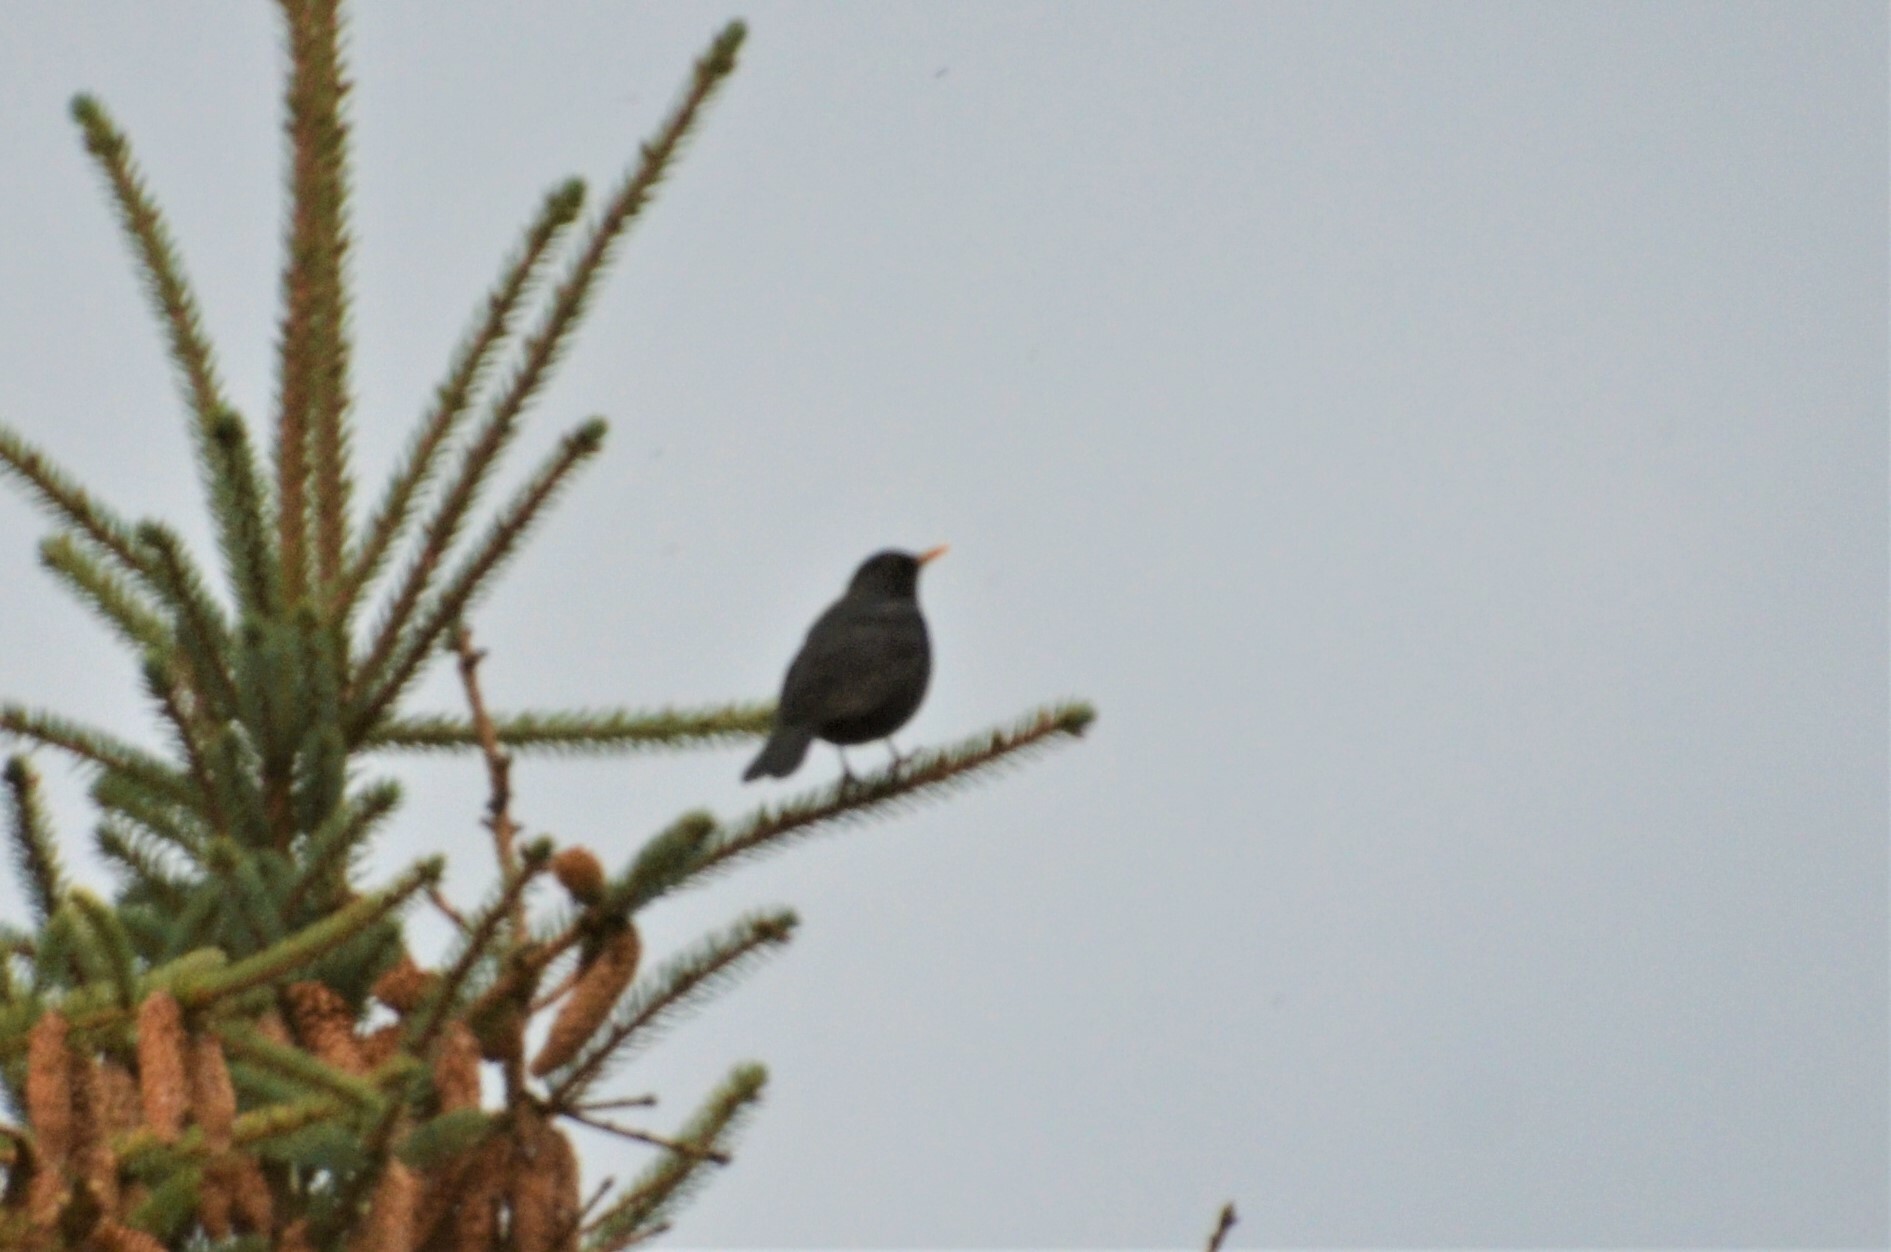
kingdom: Animalia
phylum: Chordata
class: Aves
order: Passeriformes
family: Turdidae
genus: Turdus
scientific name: Turdus merula
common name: Common blackbird
